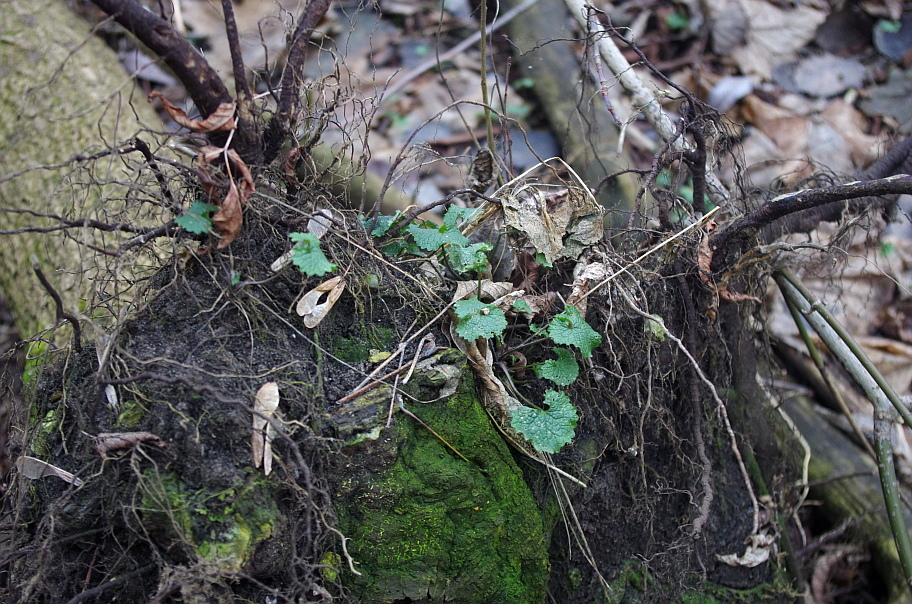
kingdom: Plantae
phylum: Tracheophyta
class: Magnoliopsida
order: Brassicales
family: Brassicaceae
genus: Alliaria
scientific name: Alliaria petiolata
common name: Garlic mustard
